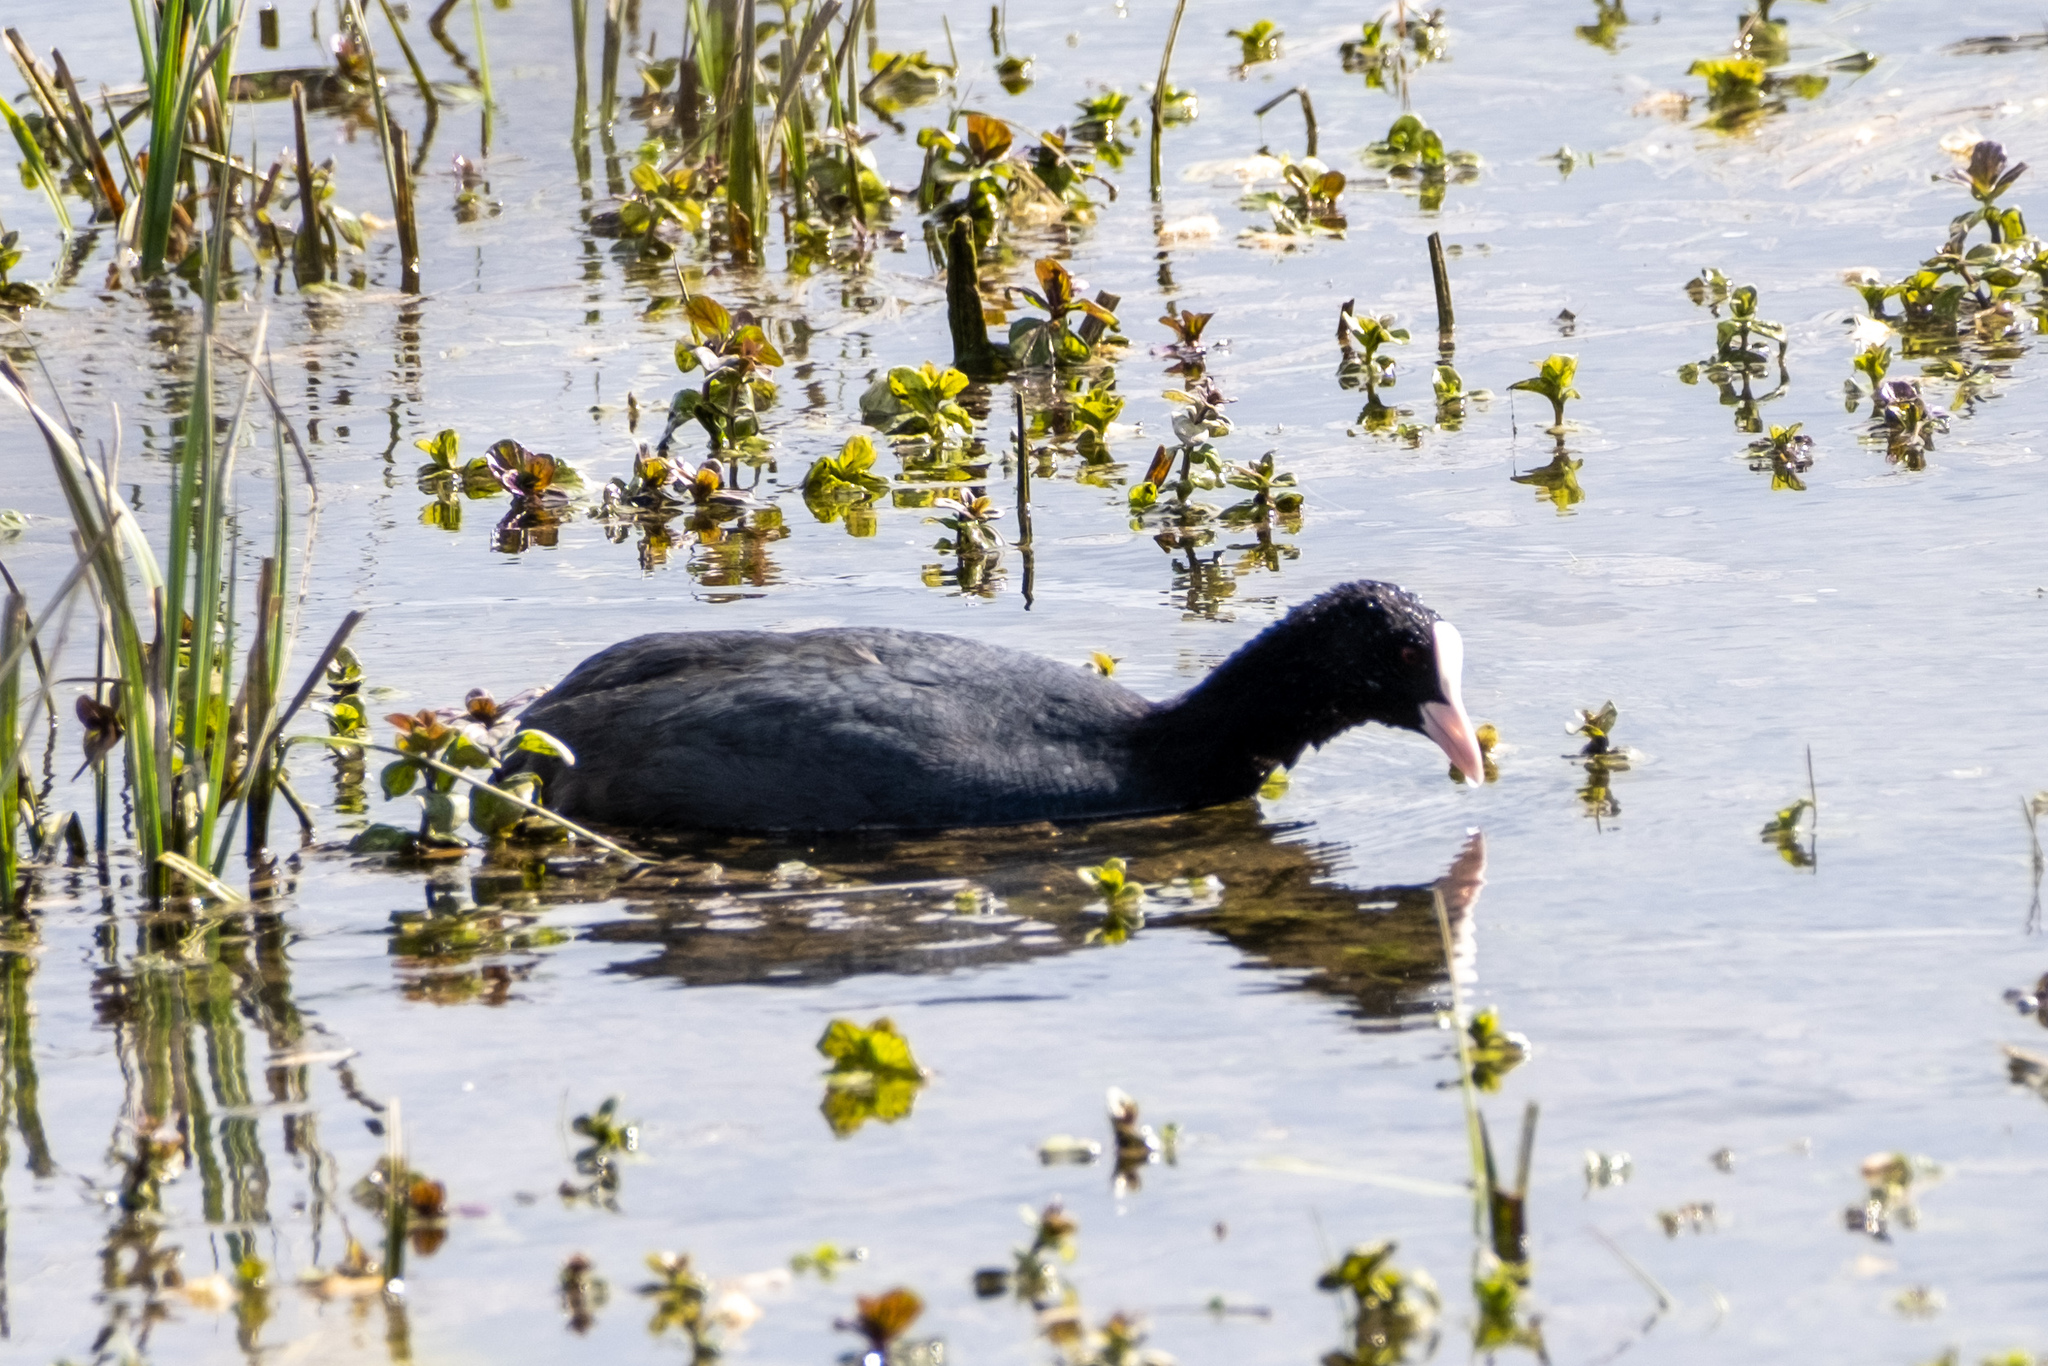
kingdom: Animalia
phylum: Chordata
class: Aves
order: Gruiformes
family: Rallidae
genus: Fulica
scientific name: Fulica atra
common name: Eurasian coot
